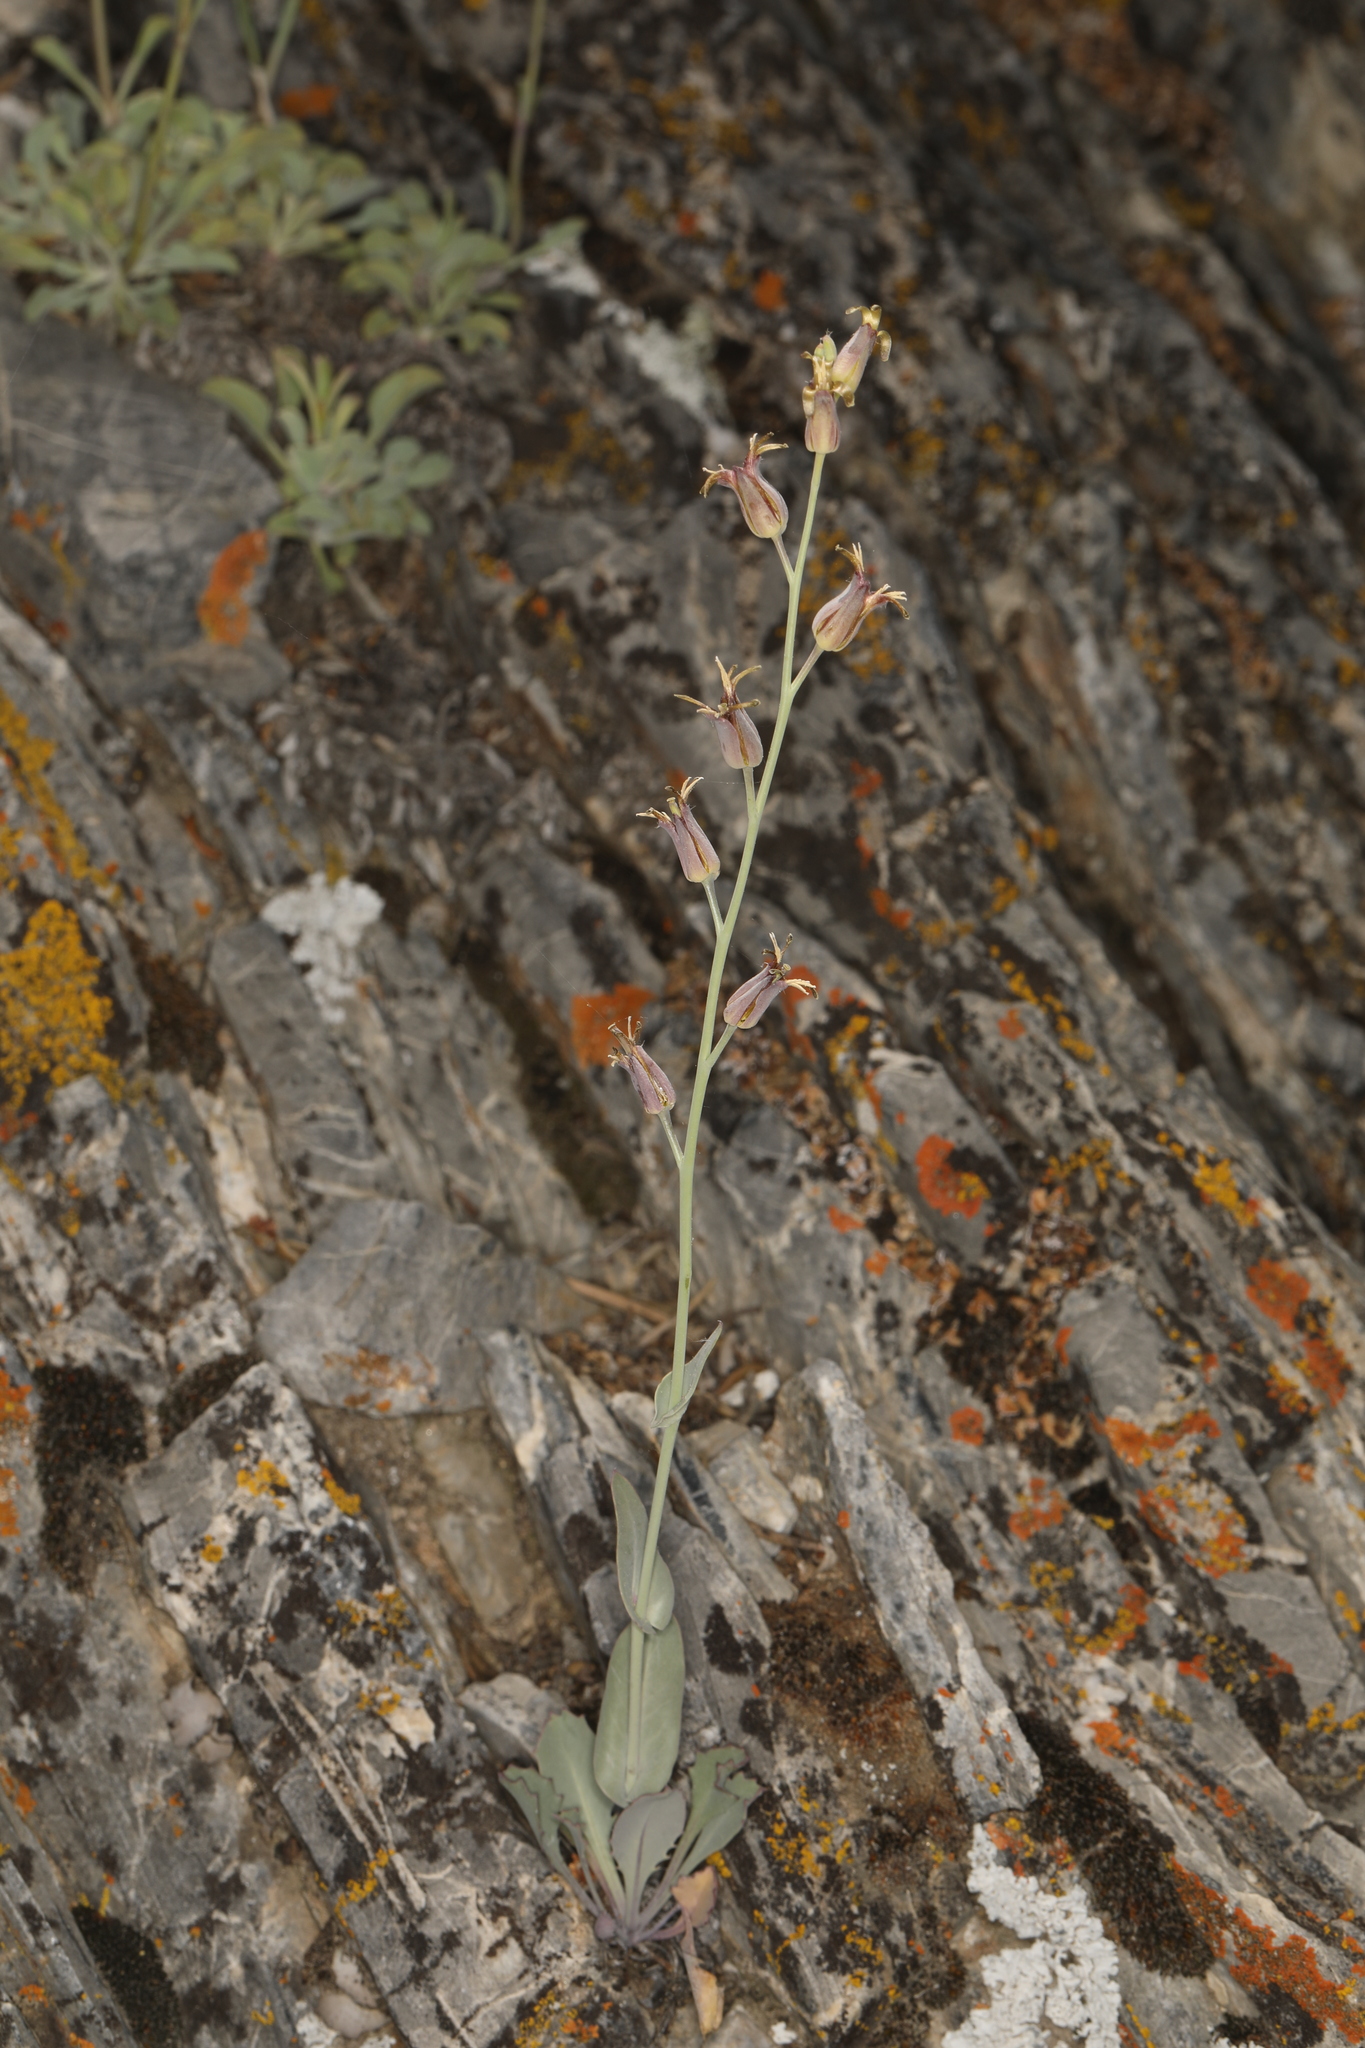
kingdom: Plantae
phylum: Tracheophyta
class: Magnoliopsida
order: Brassicales
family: Brassicaceae
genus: Streptanthus
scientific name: Streptanthus cordatus
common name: Heart-leaf jewel-flower
